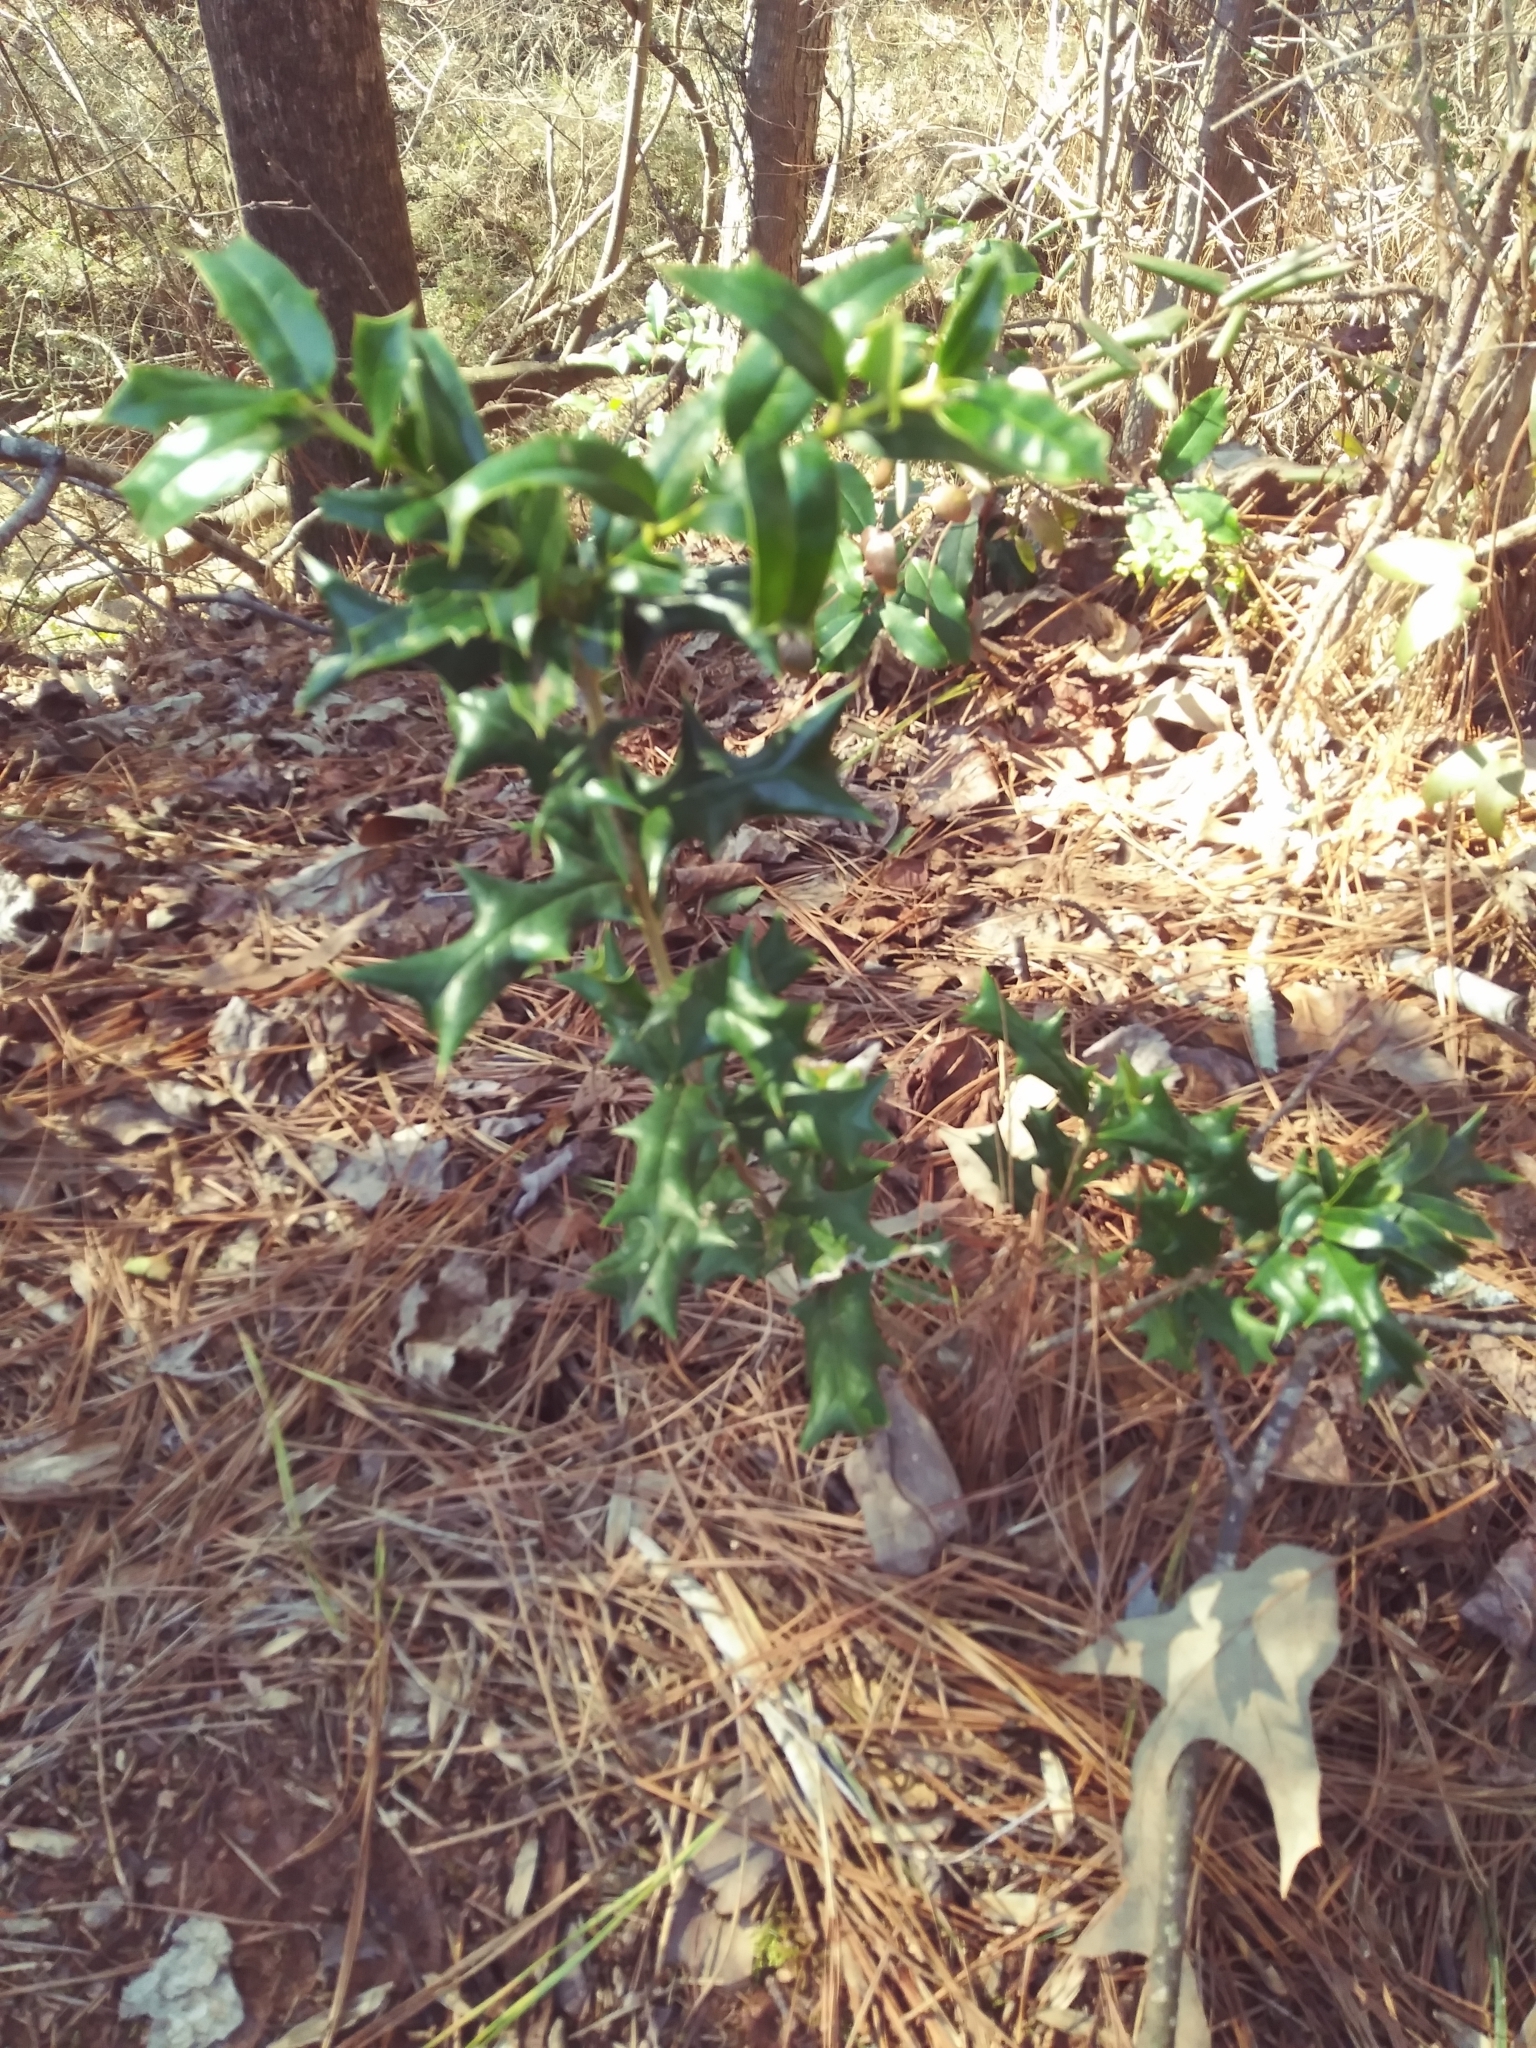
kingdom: Plantae
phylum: Tracheophyta
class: Magnoliopsida
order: Aquifoliales
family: Aquifoliaceae
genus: Ilex
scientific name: Ilex cornuta
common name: Chinese holly
